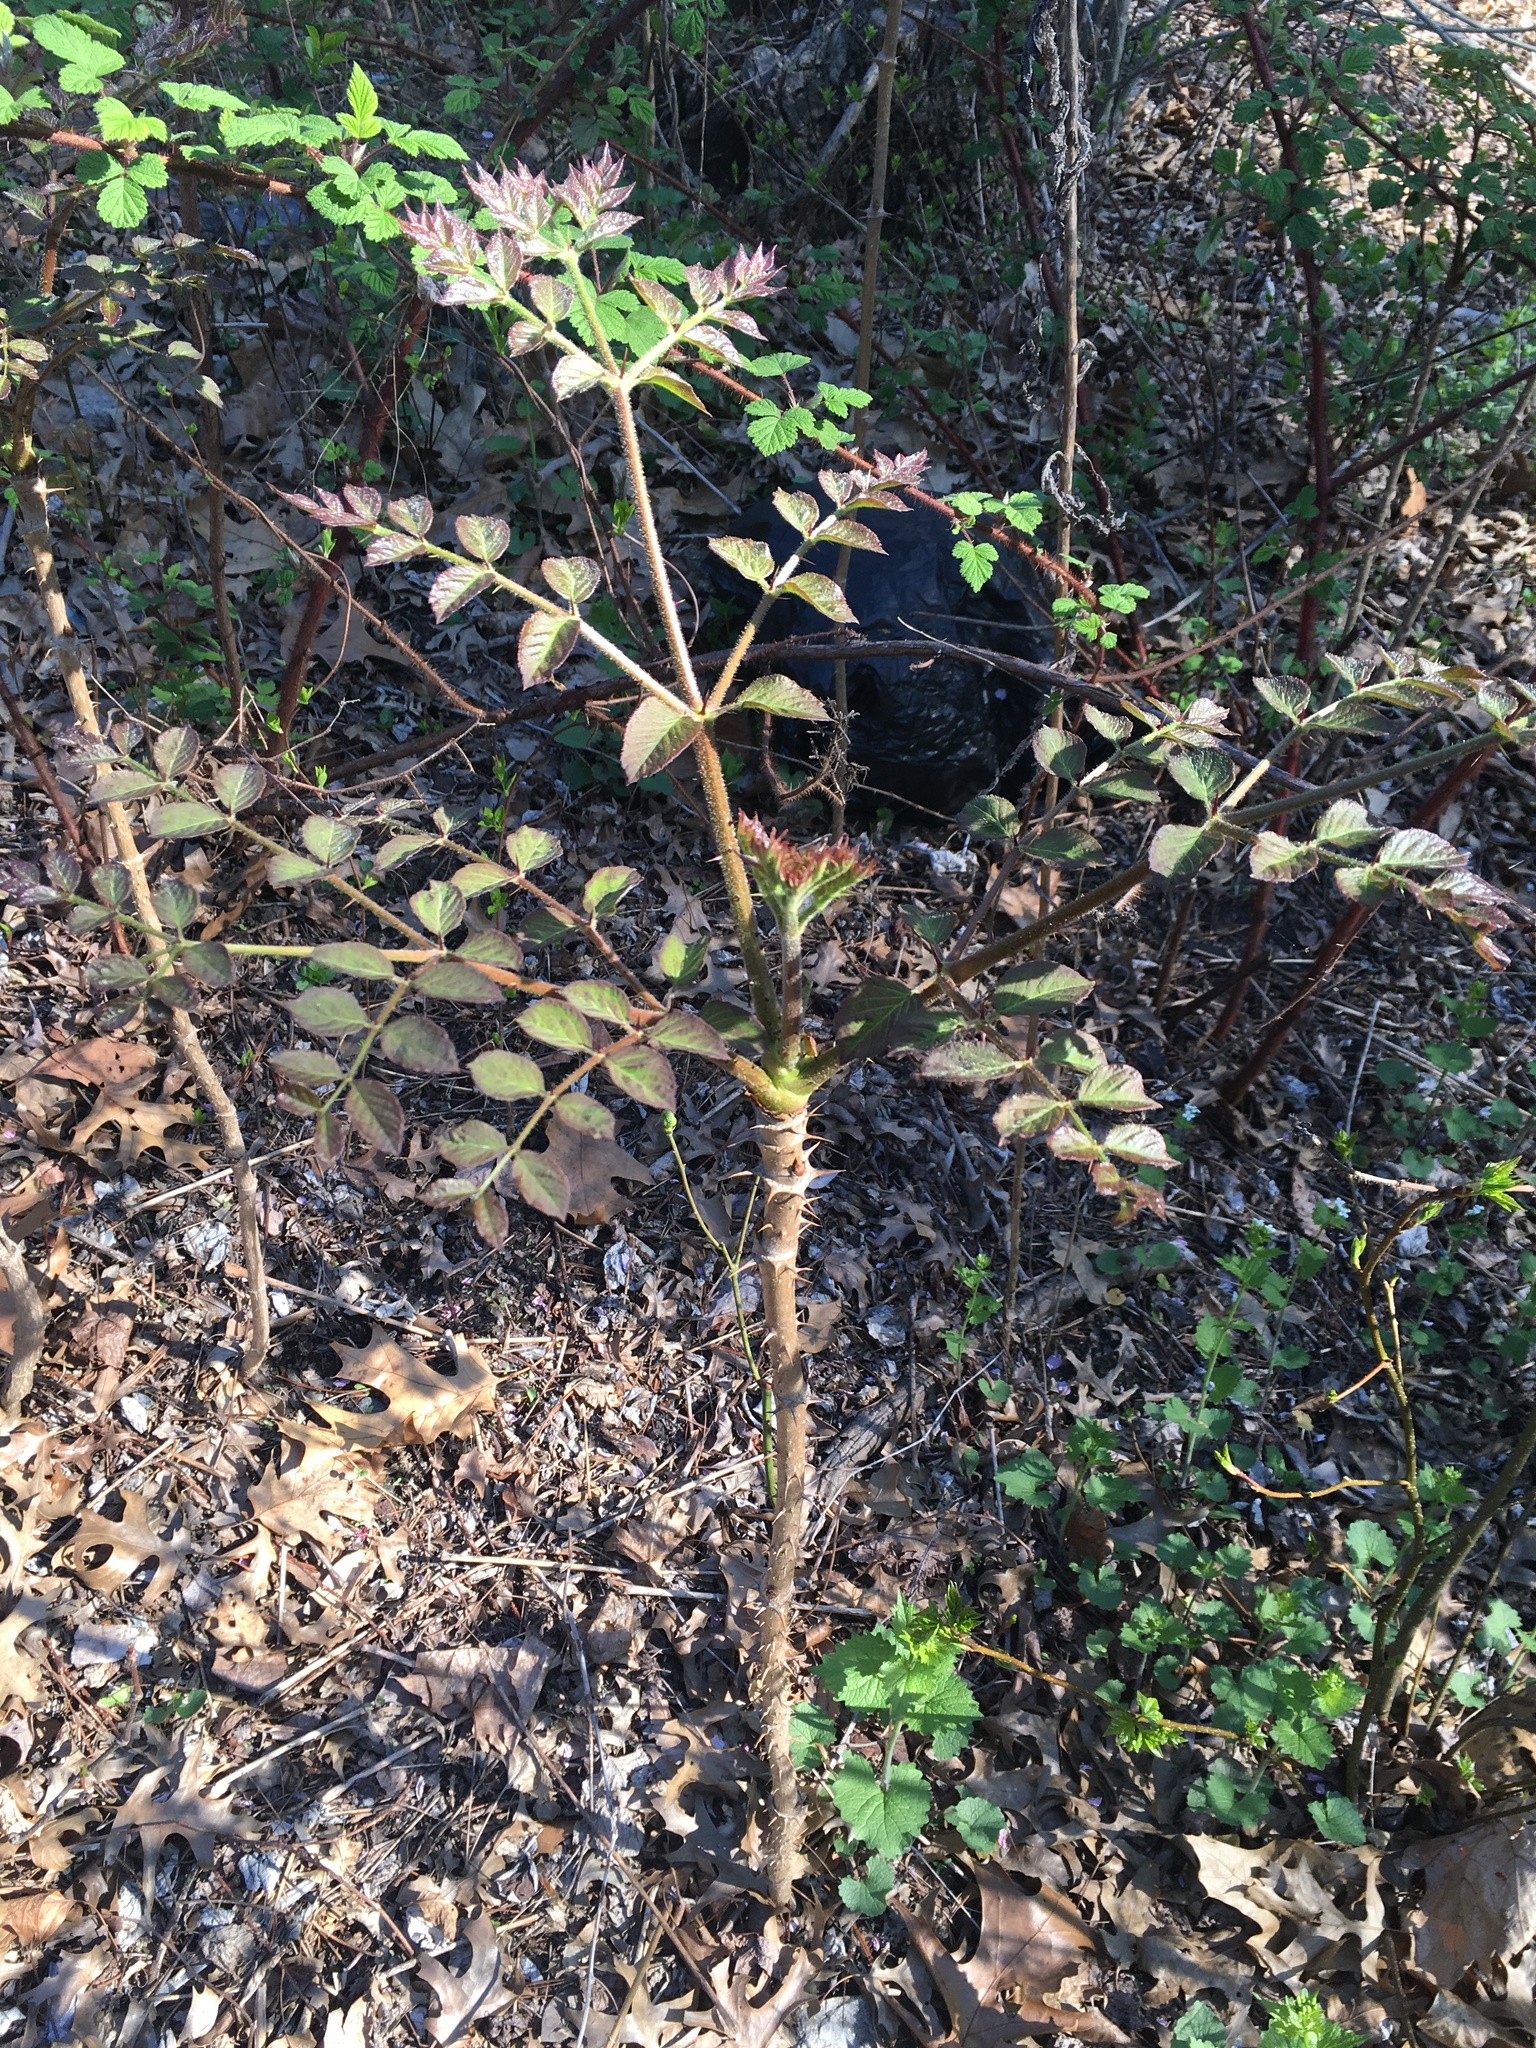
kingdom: Plantae
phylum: Tracheophyta
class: Magnoliopsida
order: Apiales
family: Araliaceae
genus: Aralia
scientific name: Aralia elata
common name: Japanese angelica-tree
